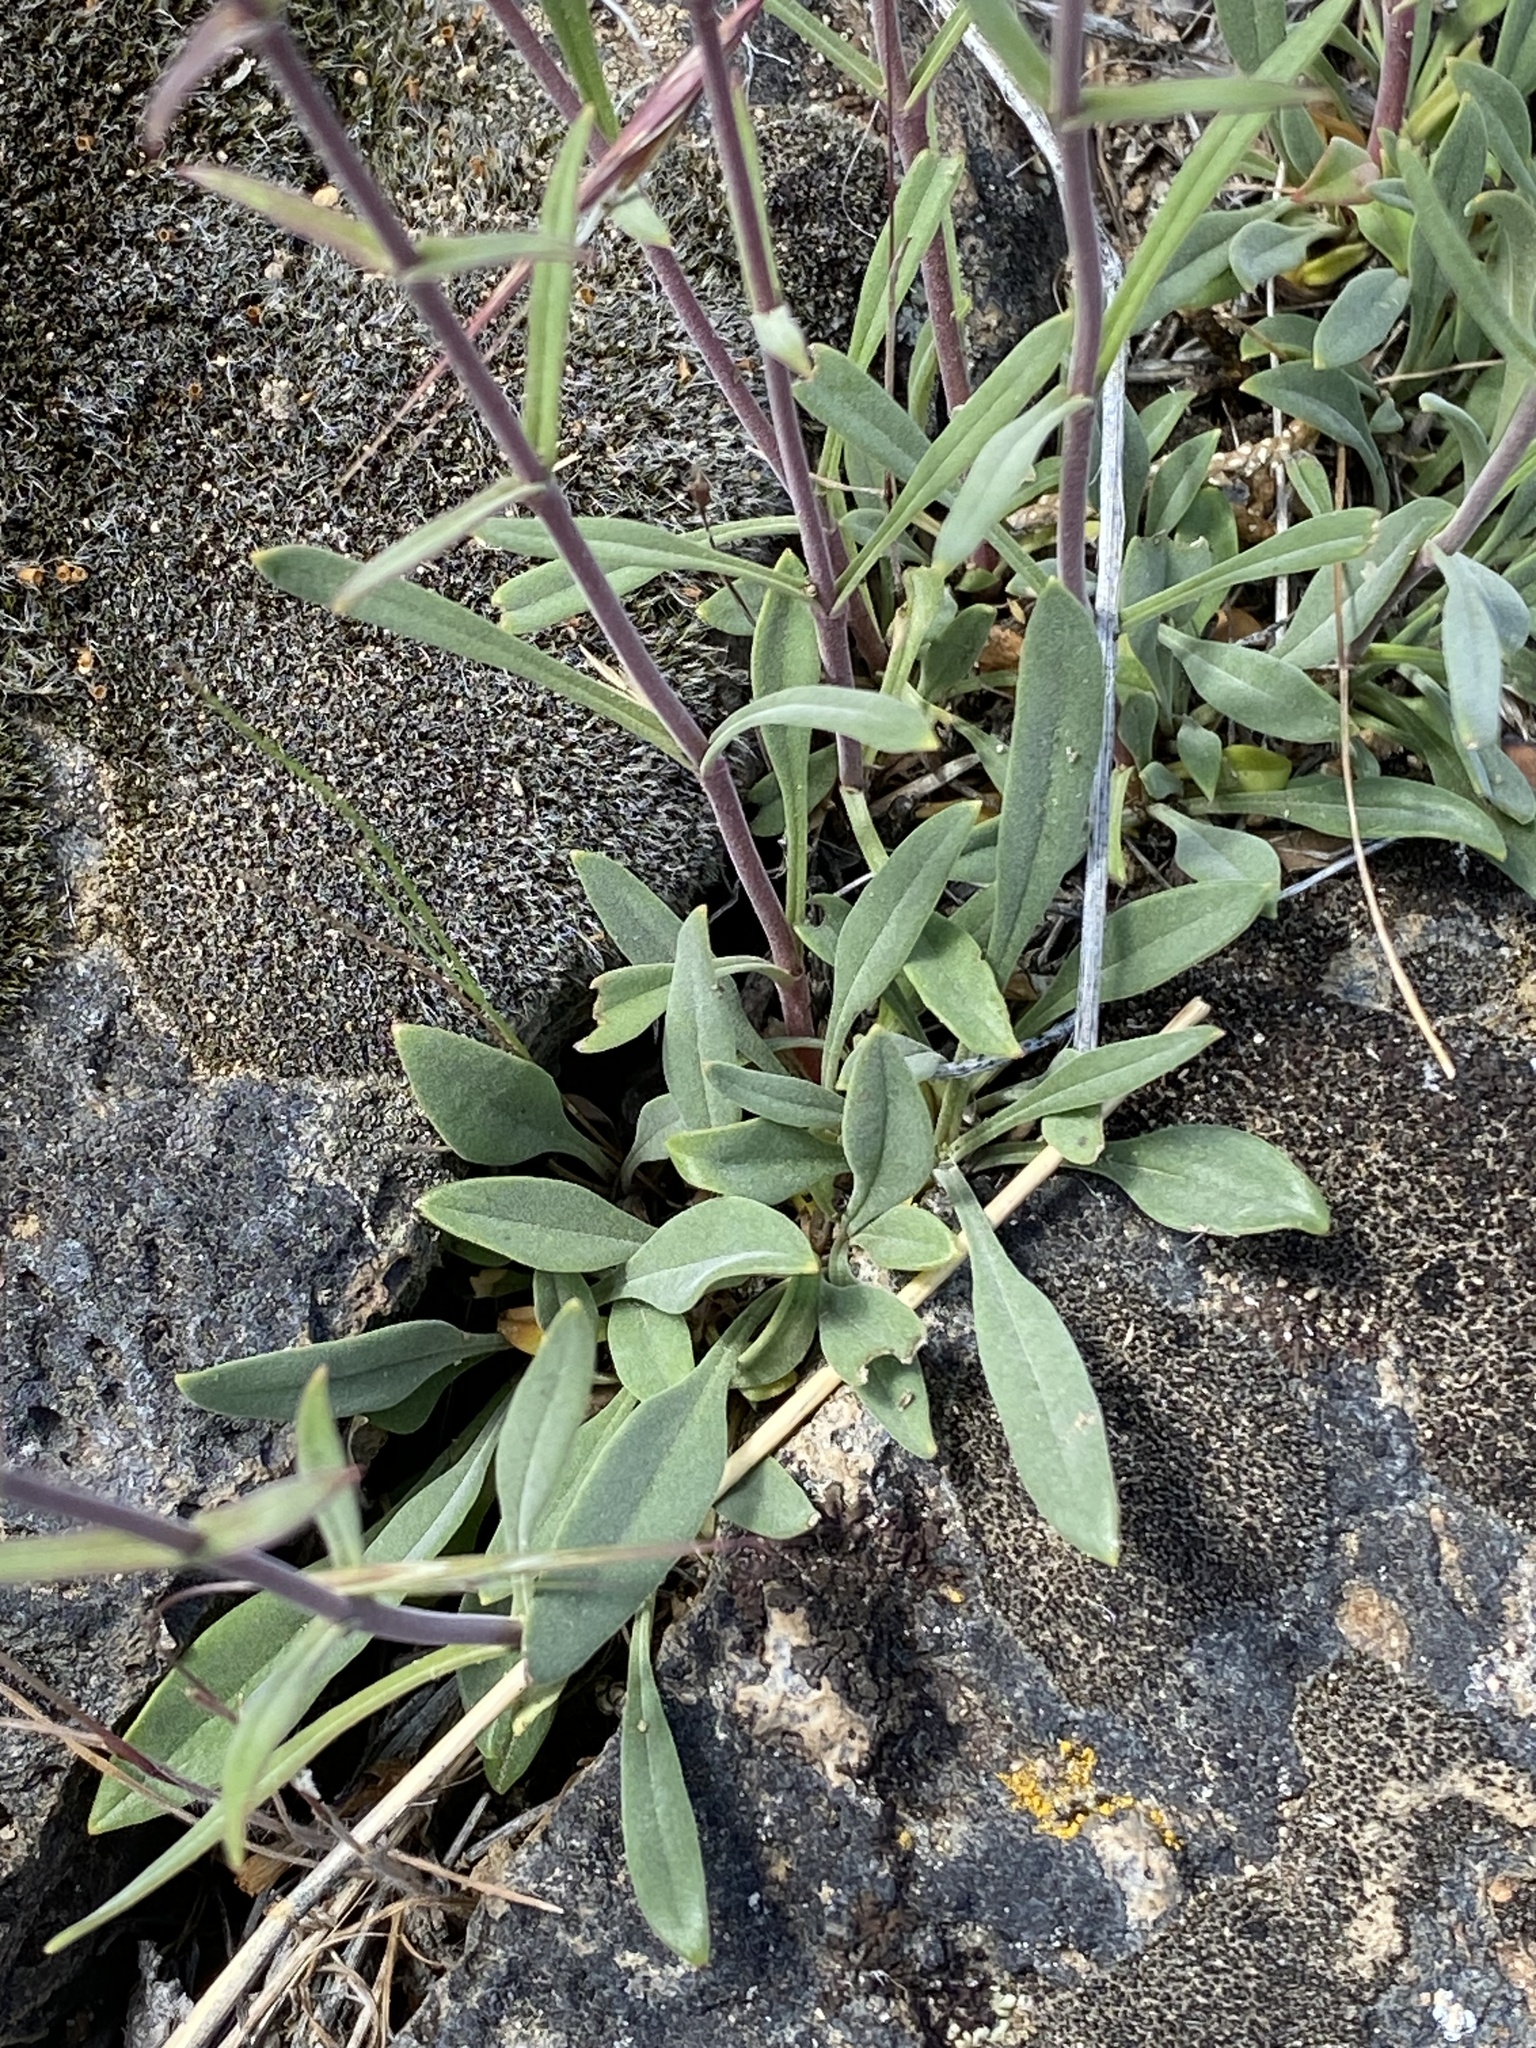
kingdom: Plantae
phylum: Tracheophyta
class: Magnoliopsida
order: Lamiales
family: Plantaginaceae
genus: Penstemon
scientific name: Penstemon humilis
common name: Low penstemon
